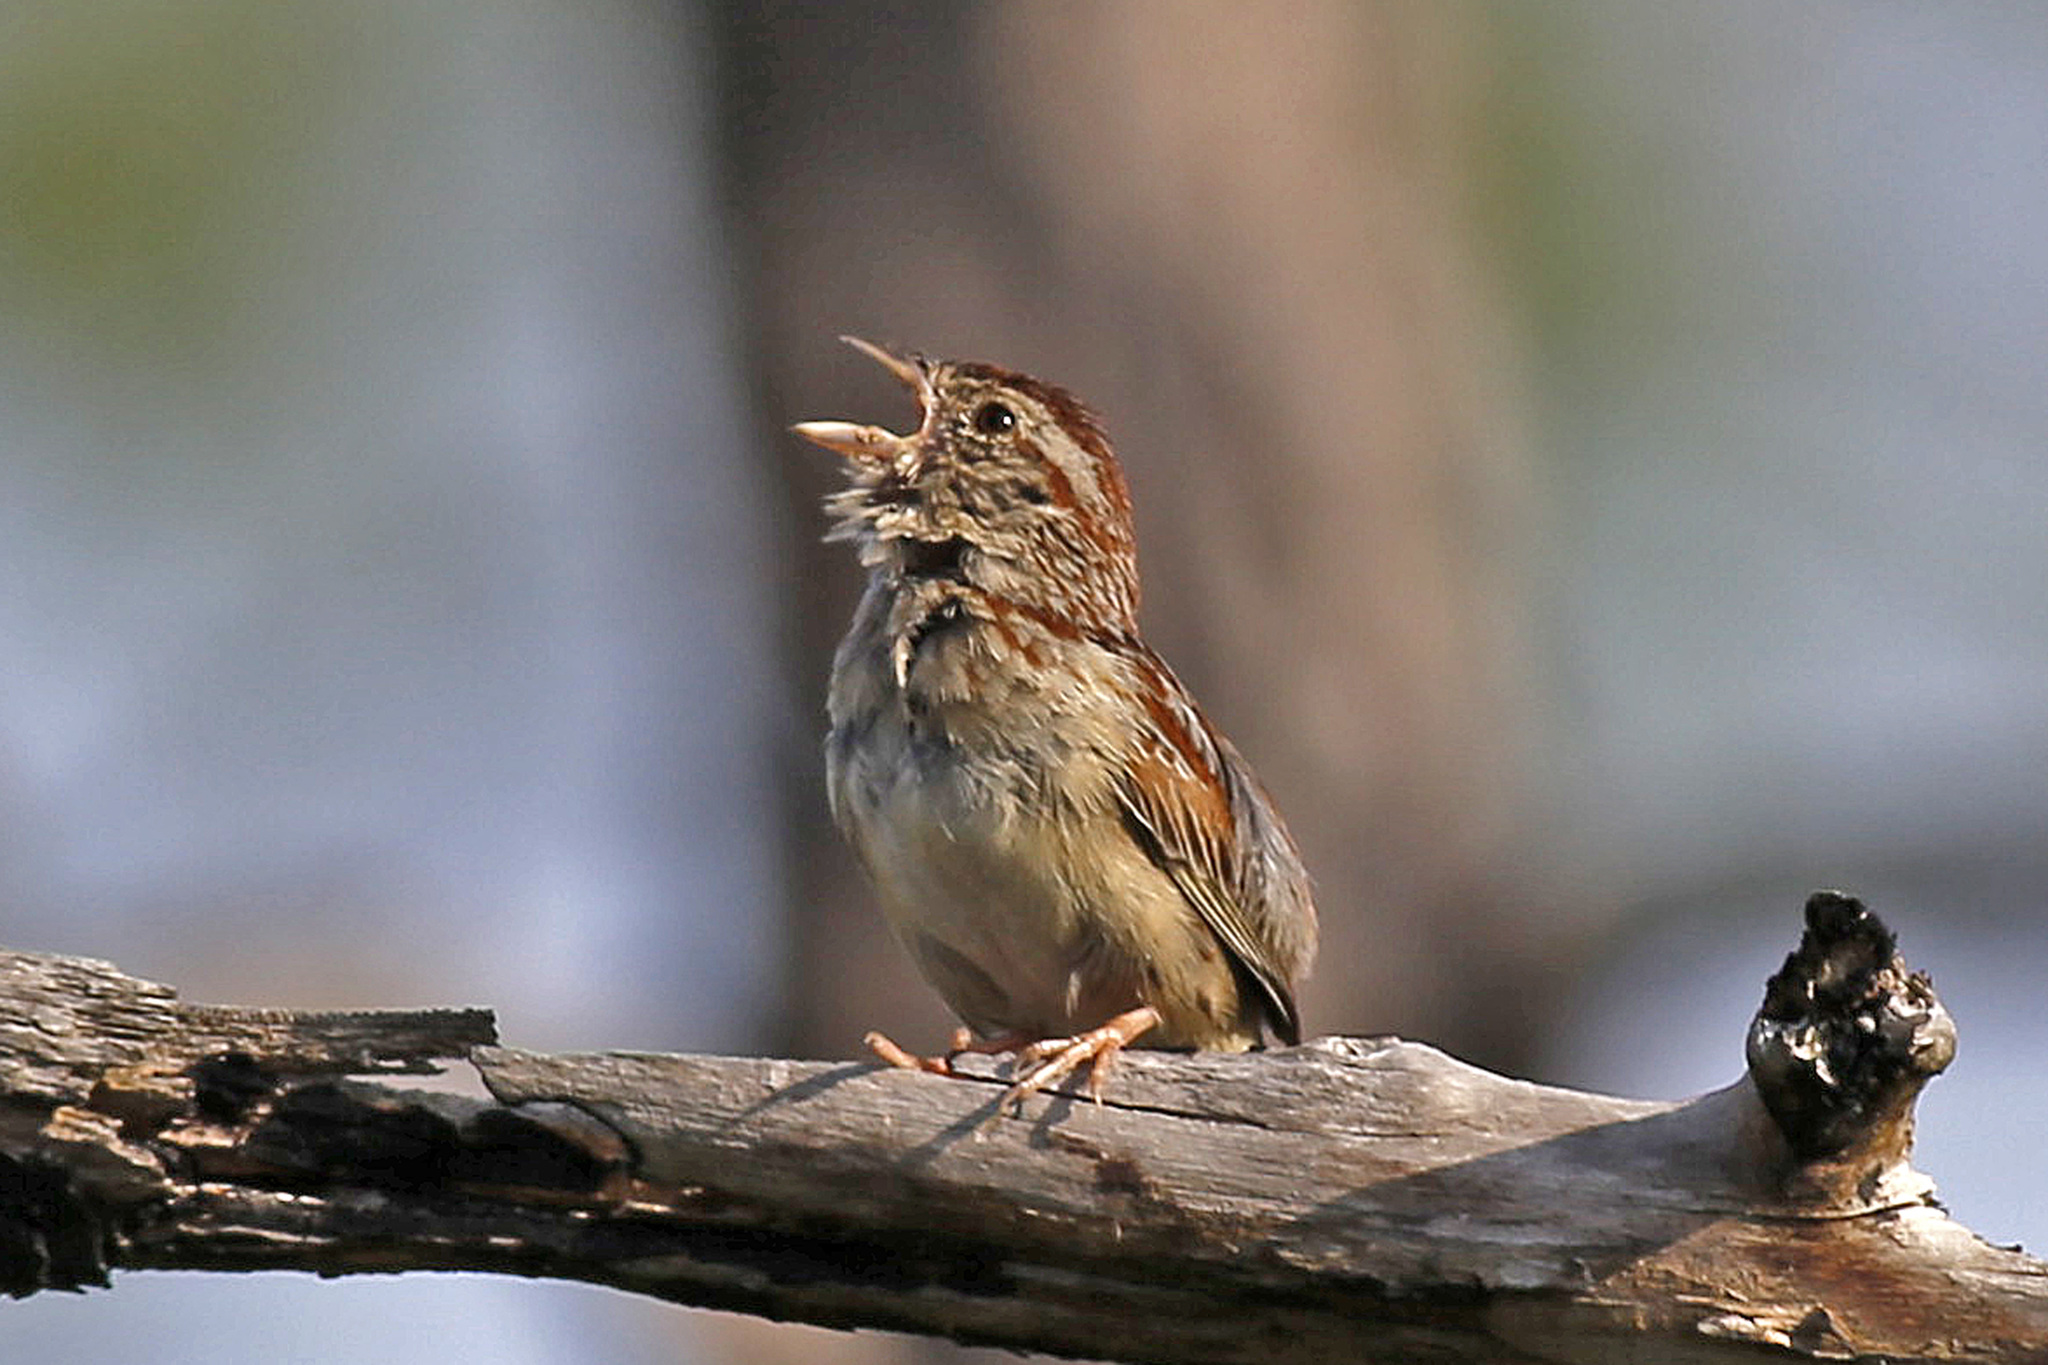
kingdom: Animalia
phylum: Chordata
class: Aves
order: Passeriformes
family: Passerellidae
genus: Peucaea
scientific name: Peucaea aestivalis
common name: Bachman's sparrow
